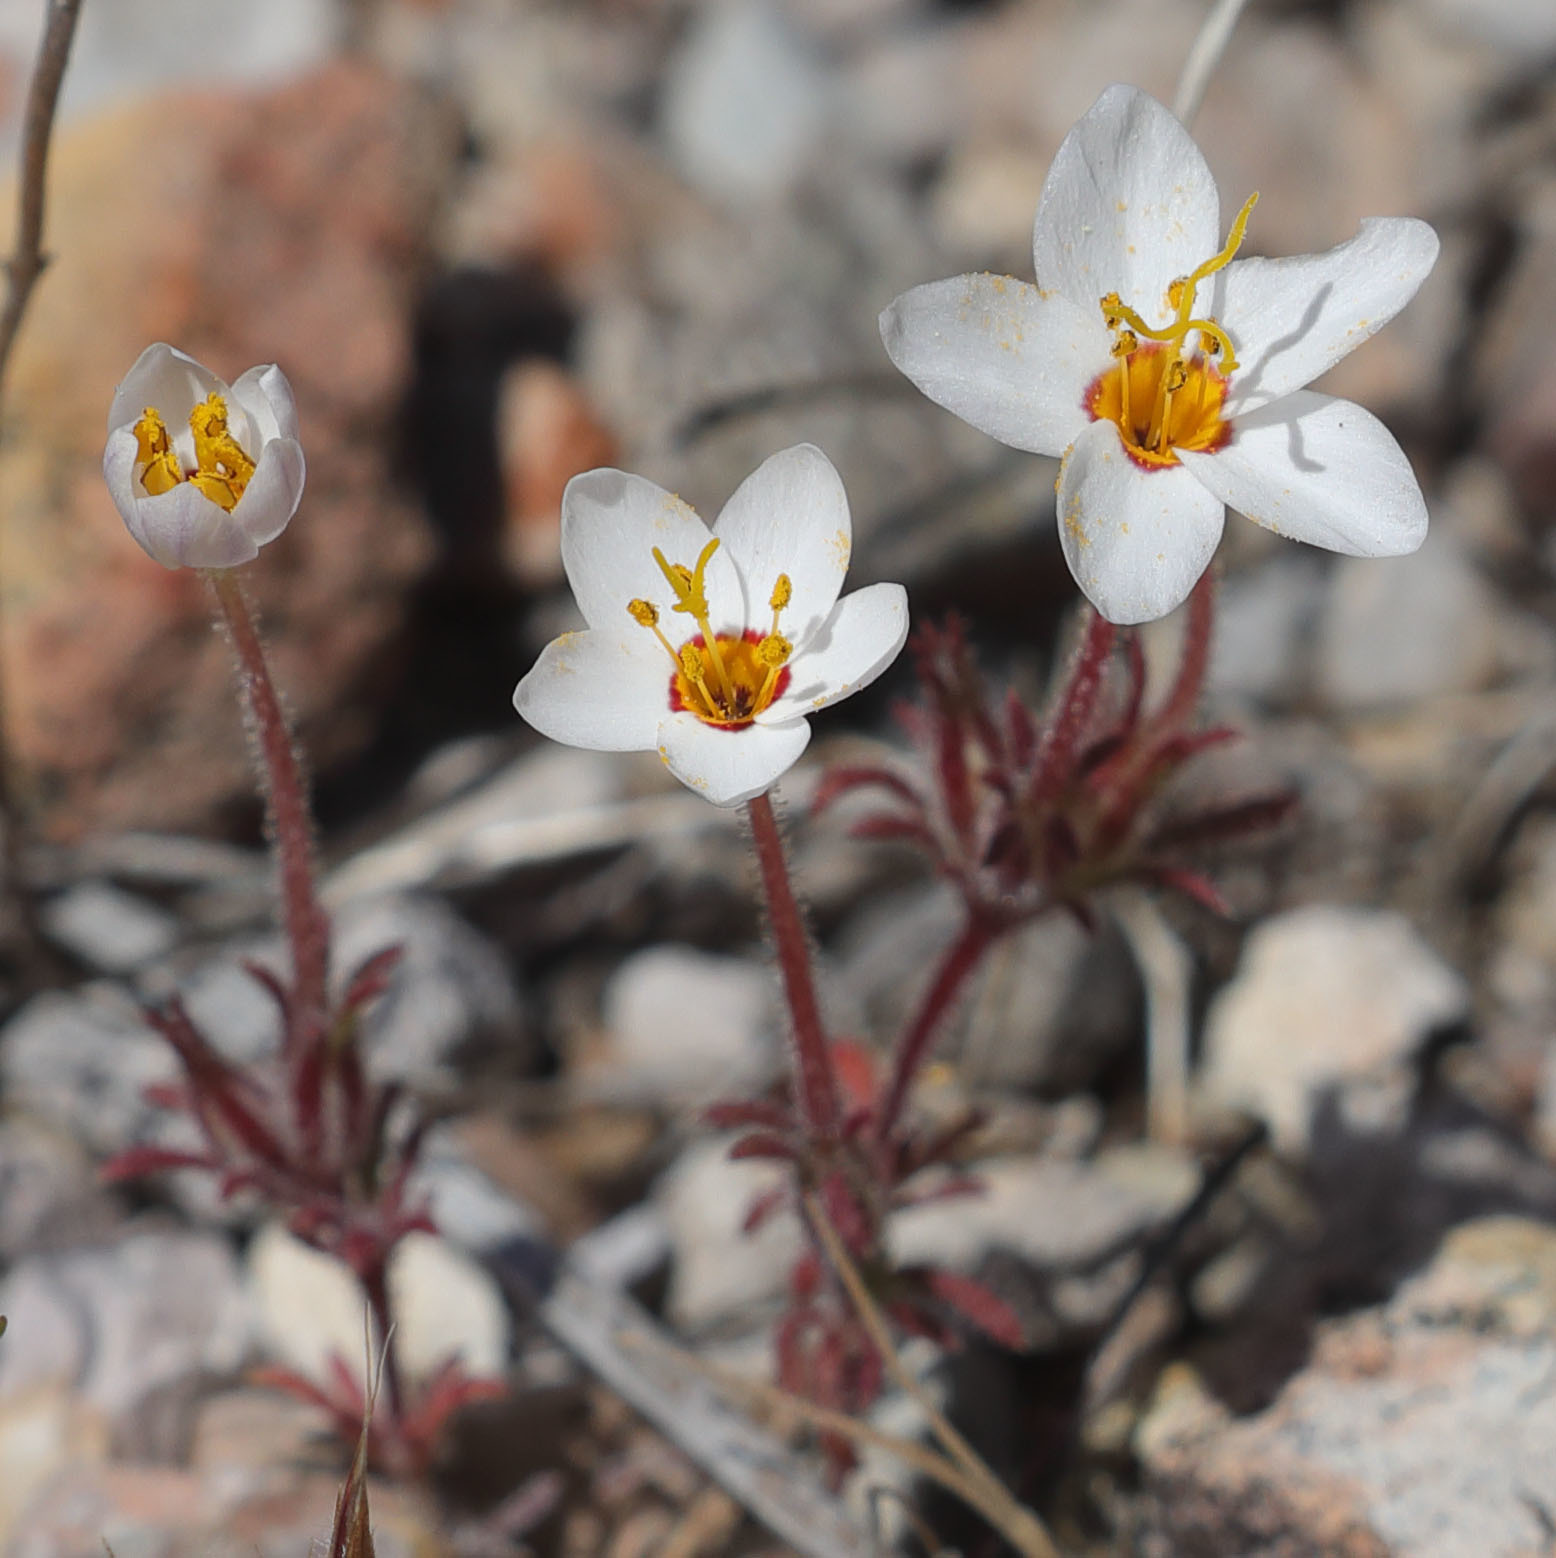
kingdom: Plantae
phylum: Tracheophyta
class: Magnoliopsida
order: Ericales
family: Polemoniaceae
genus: Leptosiphon
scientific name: Leptosiphon parviflorus
